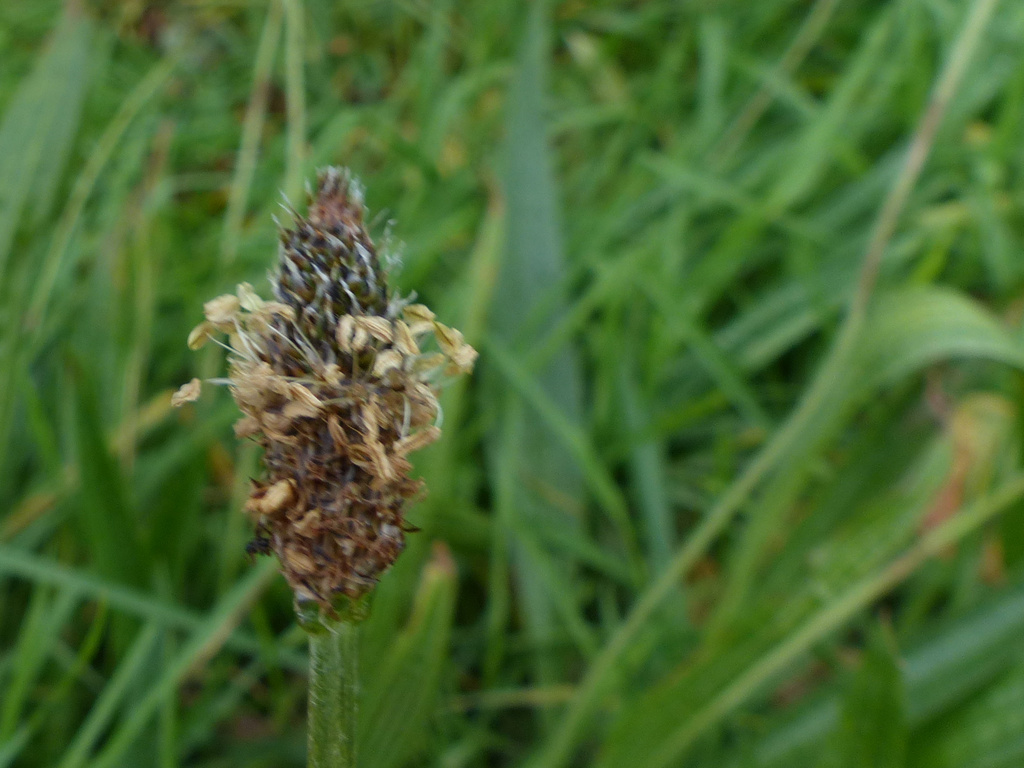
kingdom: Plantae
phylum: Tracheophyta
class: Magnoliopsida
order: Lamiales
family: Plantaginaceae
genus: Plantago
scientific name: Plantago lanceolata
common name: Ribwort plantain
